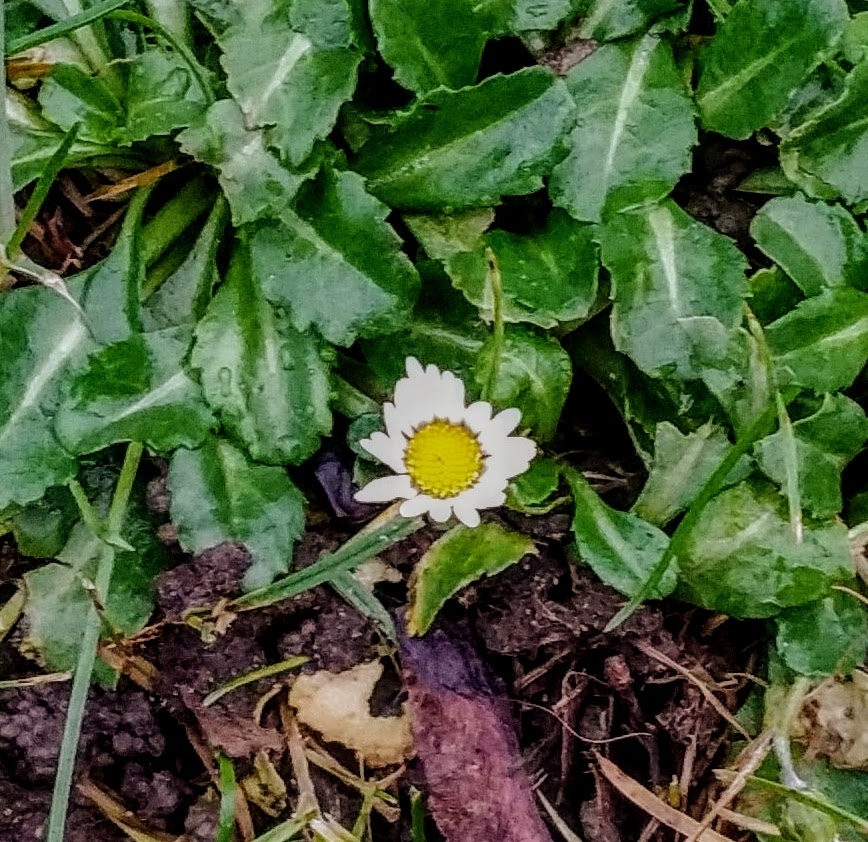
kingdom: Plantae
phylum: Tracheophyta
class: Magnoliopsida
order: Asterales
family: Asteraceae
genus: Bellis
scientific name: Bellis perennis
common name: Lawndaisy
